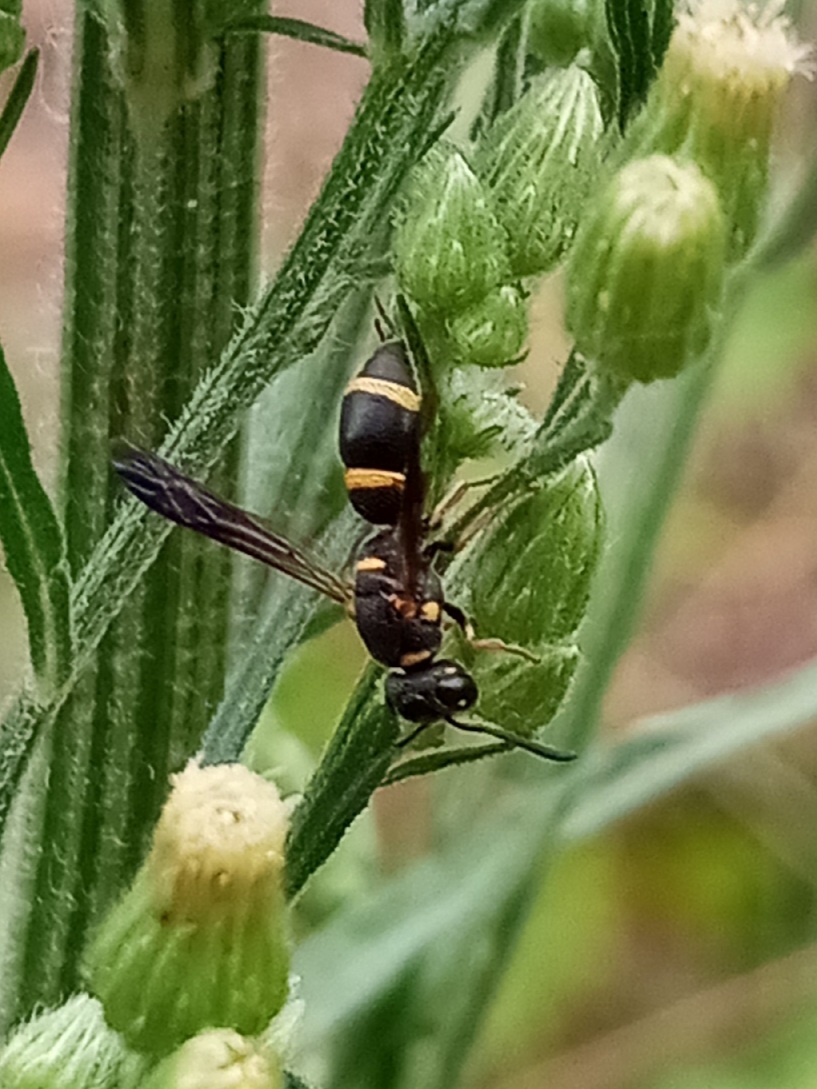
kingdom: Animalia
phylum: Arthropoda
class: Insecta
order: Hymenoptera
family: Eumenidae
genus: Parancistrocerus
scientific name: Parancistrocerus perennis
